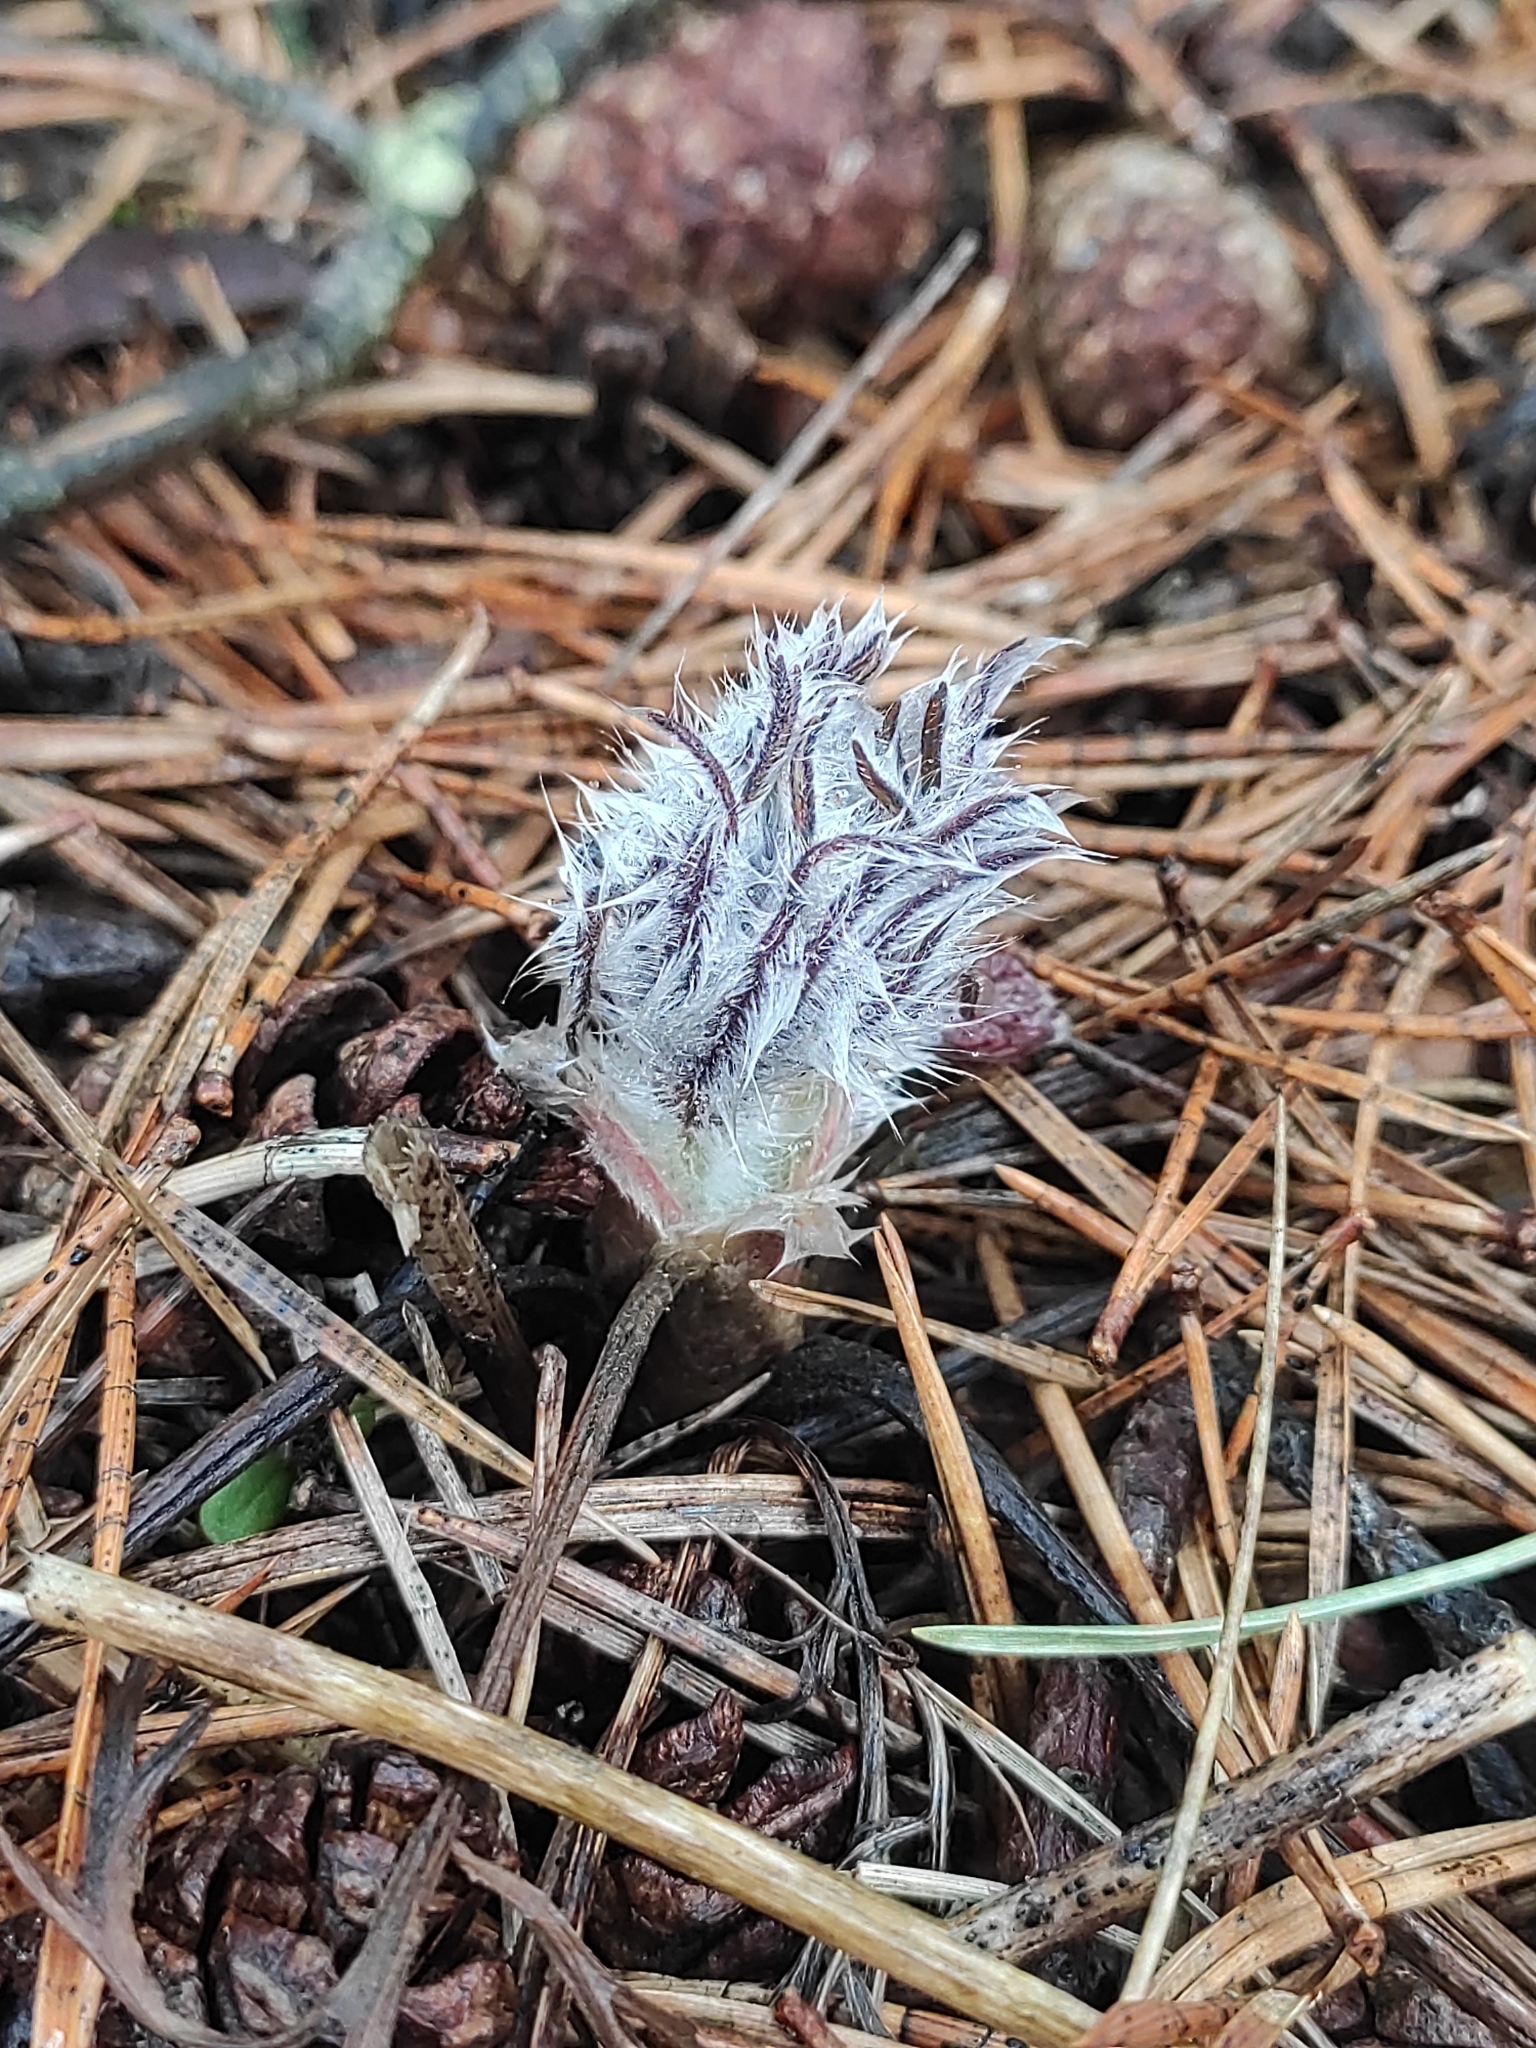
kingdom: Plantae
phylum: Tracheophyta
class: Magnoliopsida
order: Ranunculales
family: Ranunculaceae
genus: Pulsatilla
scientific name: Pulsatilla pratensis
